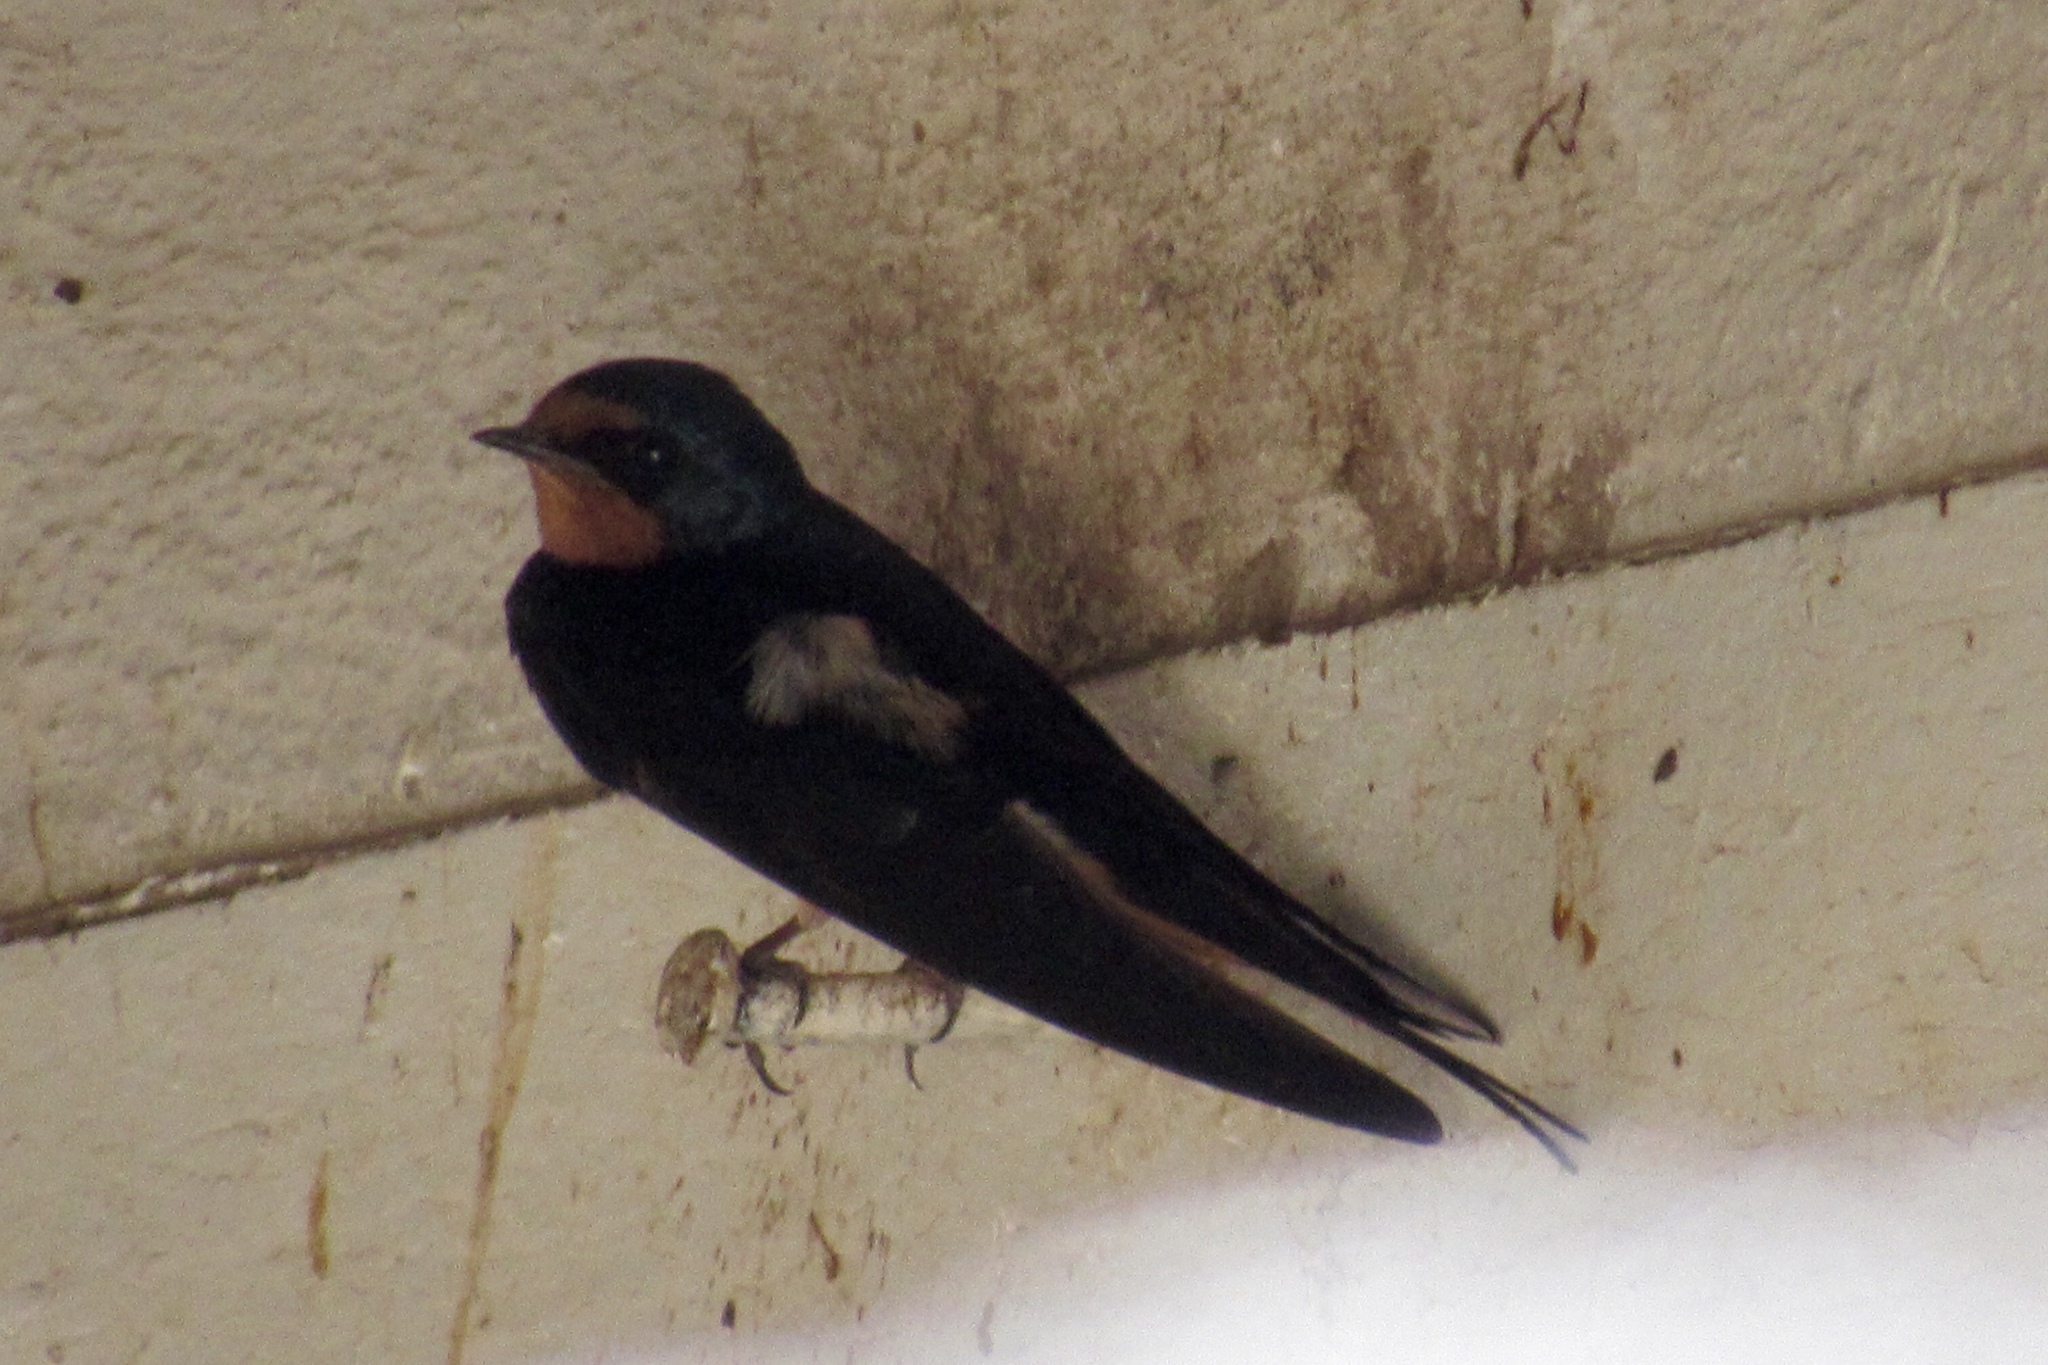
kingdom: Animalia
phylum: Chordata
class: Aves
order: Passeriformes
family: Hirundinidae
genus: Hirundo
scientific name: Hirundo rustica
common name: Barn swallow
